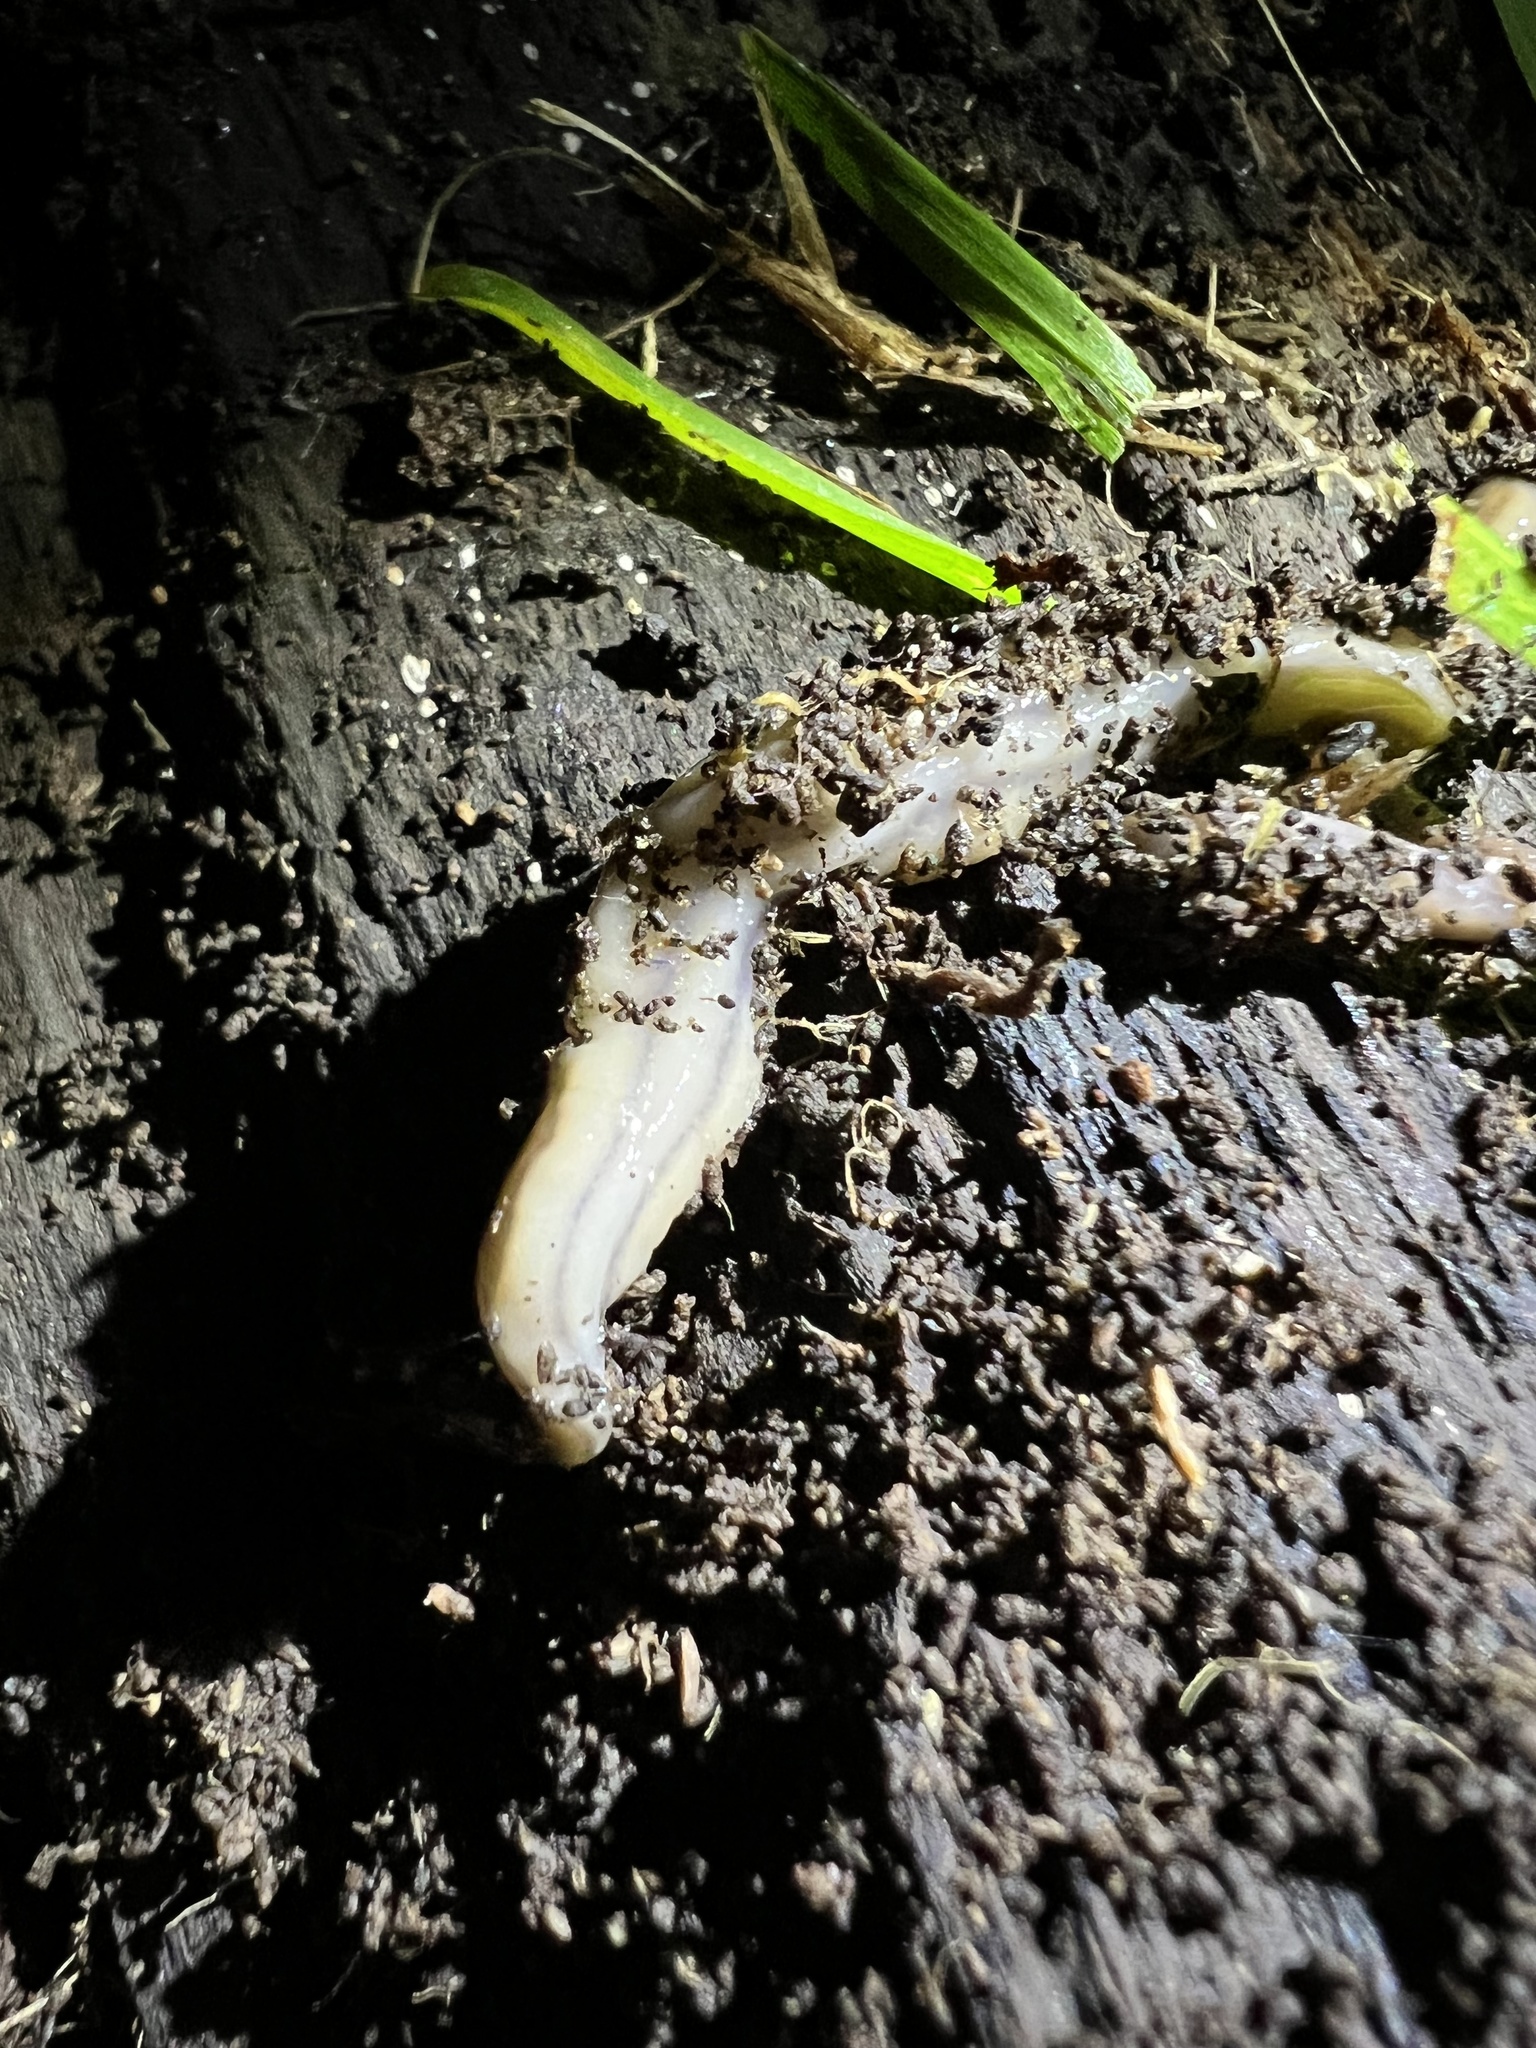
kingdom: Animalia
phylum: Platyhelminthes
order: Tricladida
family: Geoplanidae
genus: Bipalium
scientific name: Bipalium kewense
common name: Hammerhead flatworm
